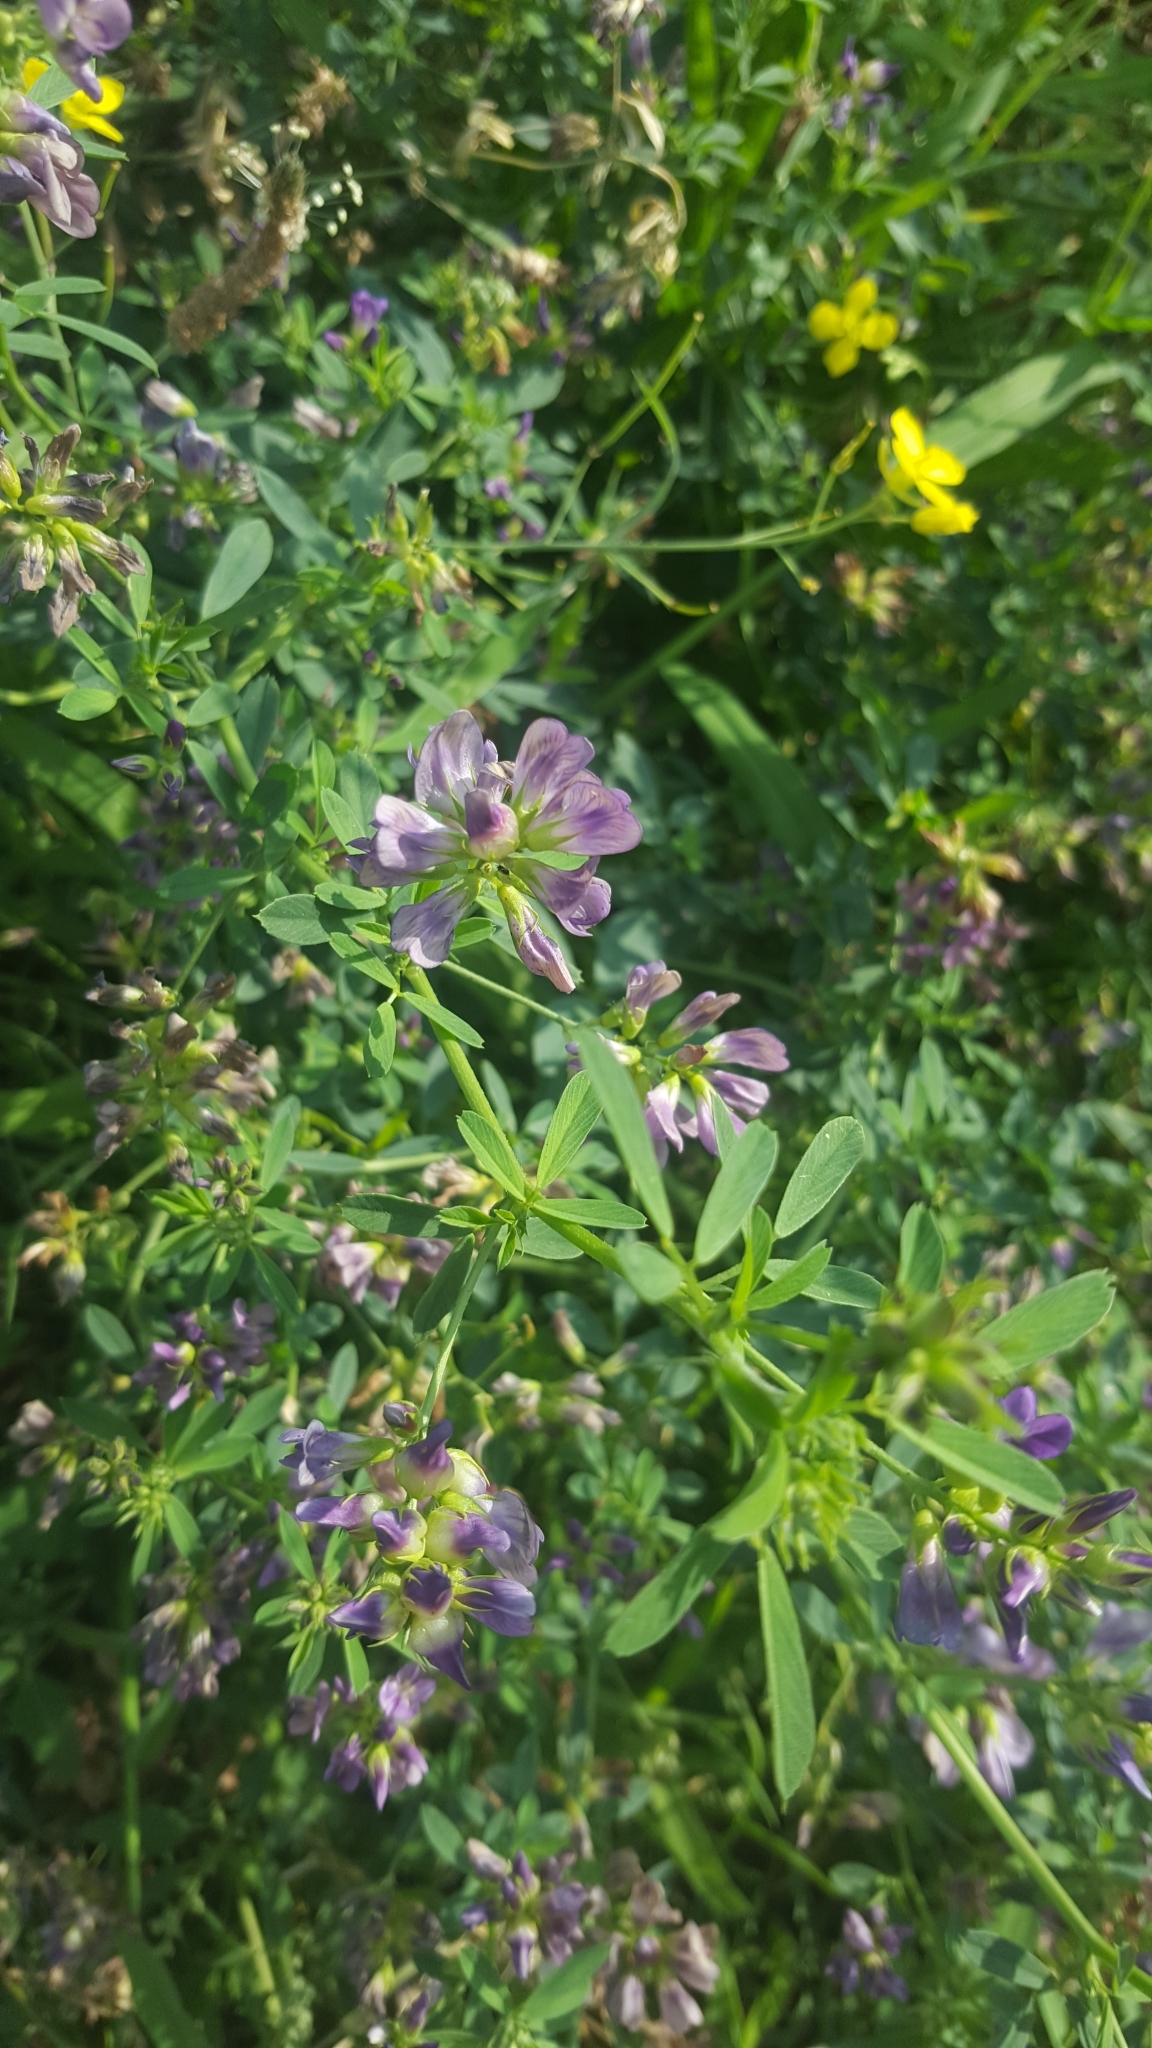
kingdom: Plantae
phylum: Tracheophyta
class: Magnoliopsida
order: Fabales
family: Fabaceae
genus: Medicago
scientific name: Medicago varia
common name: Sand lucerne
